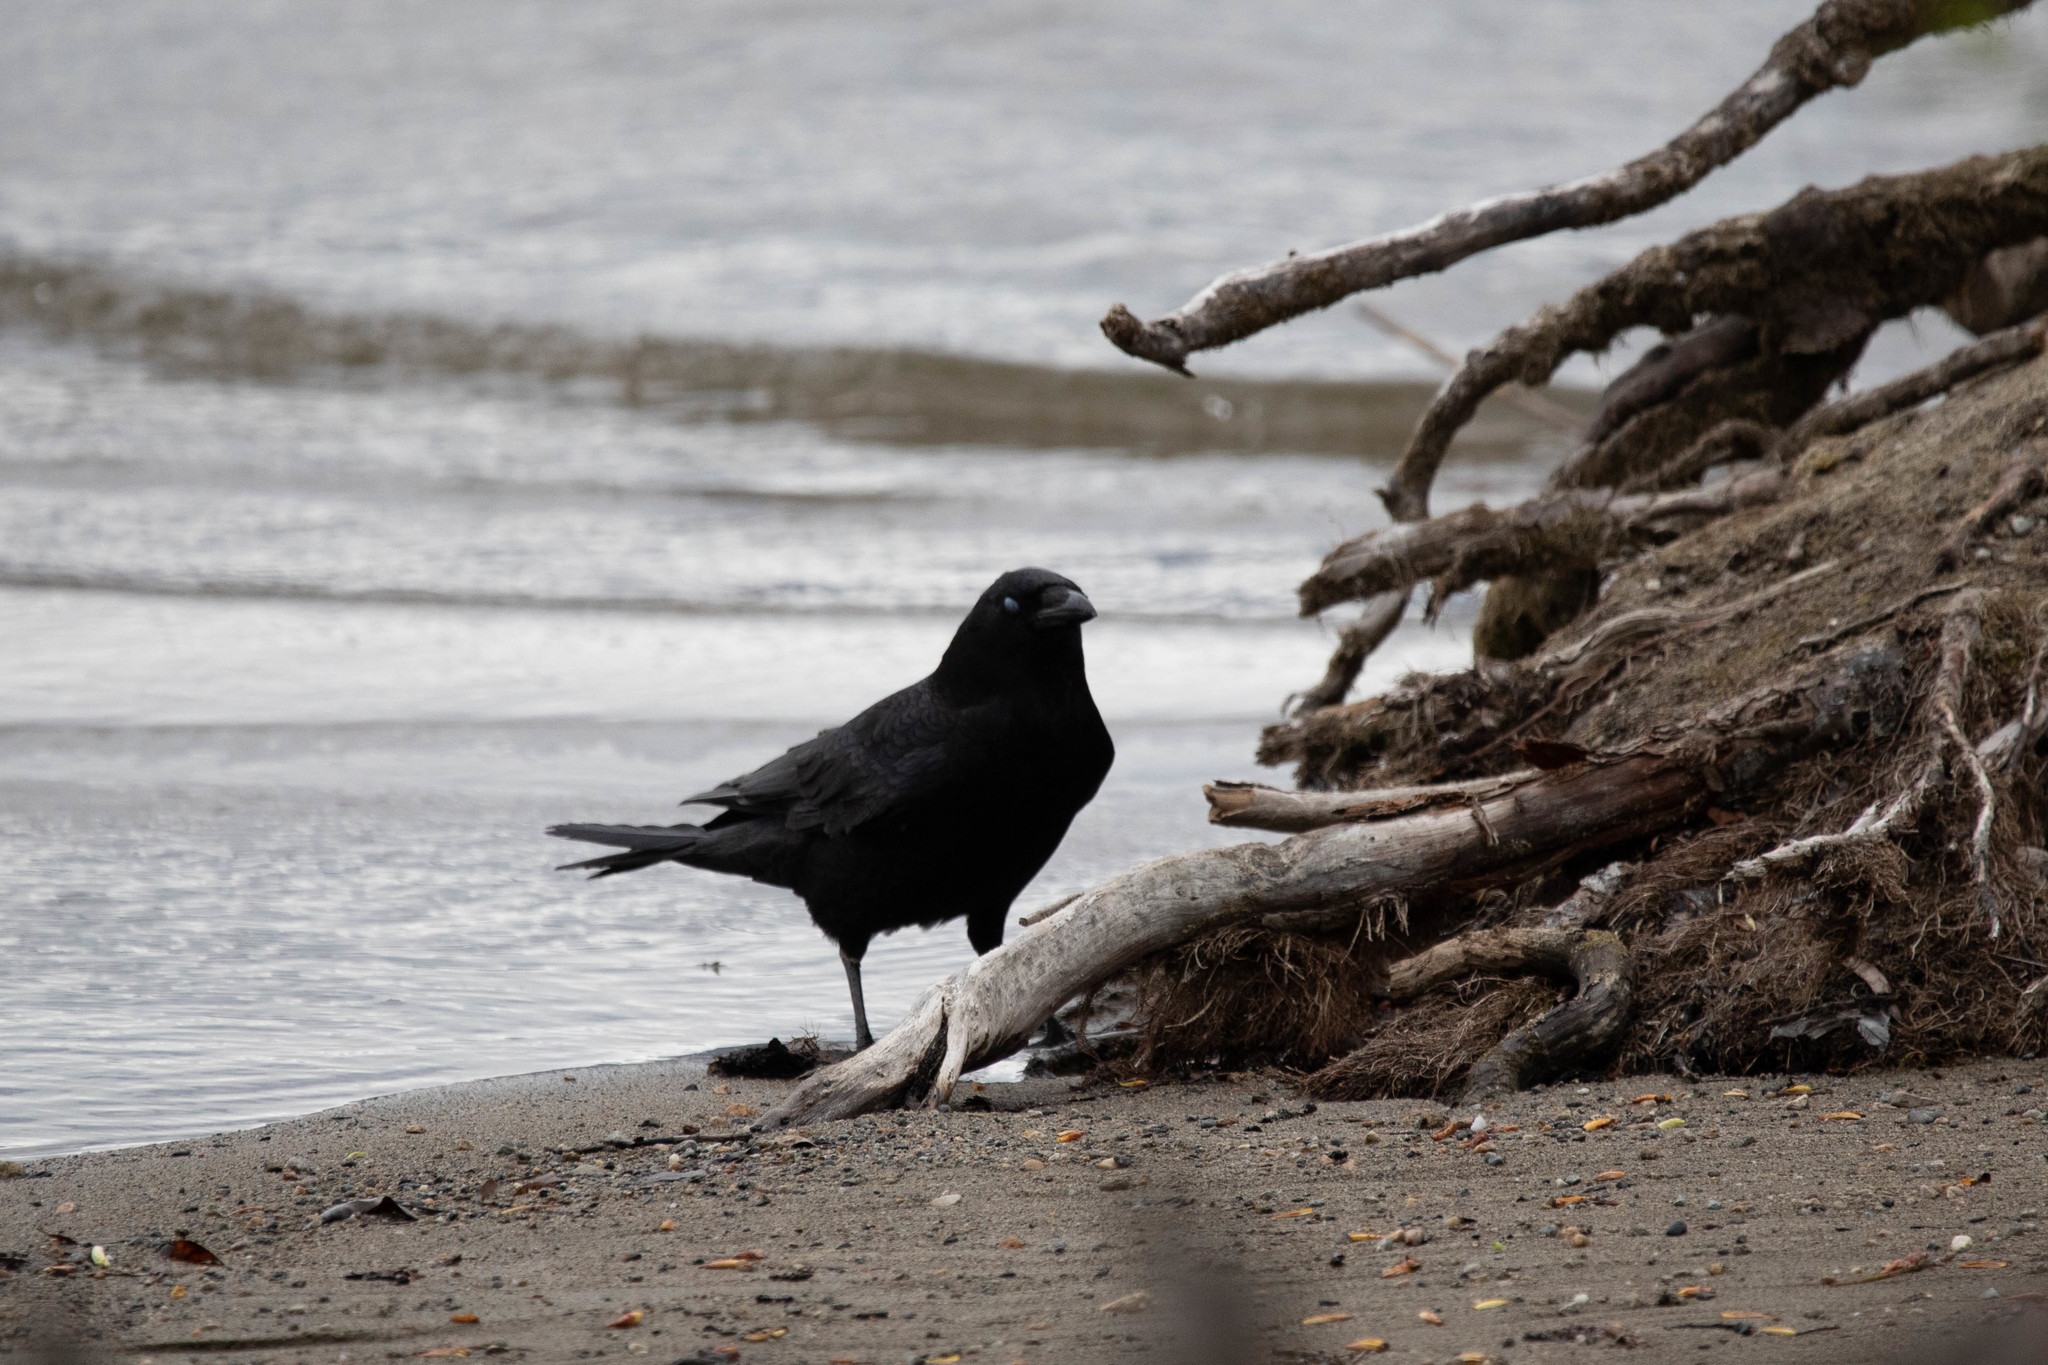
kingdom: Animalia
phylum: Chordata
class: Aves
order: Passeriformes
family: Corvidae
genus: Corvus
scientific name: Corvus brachyrhynchos
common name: American crow
